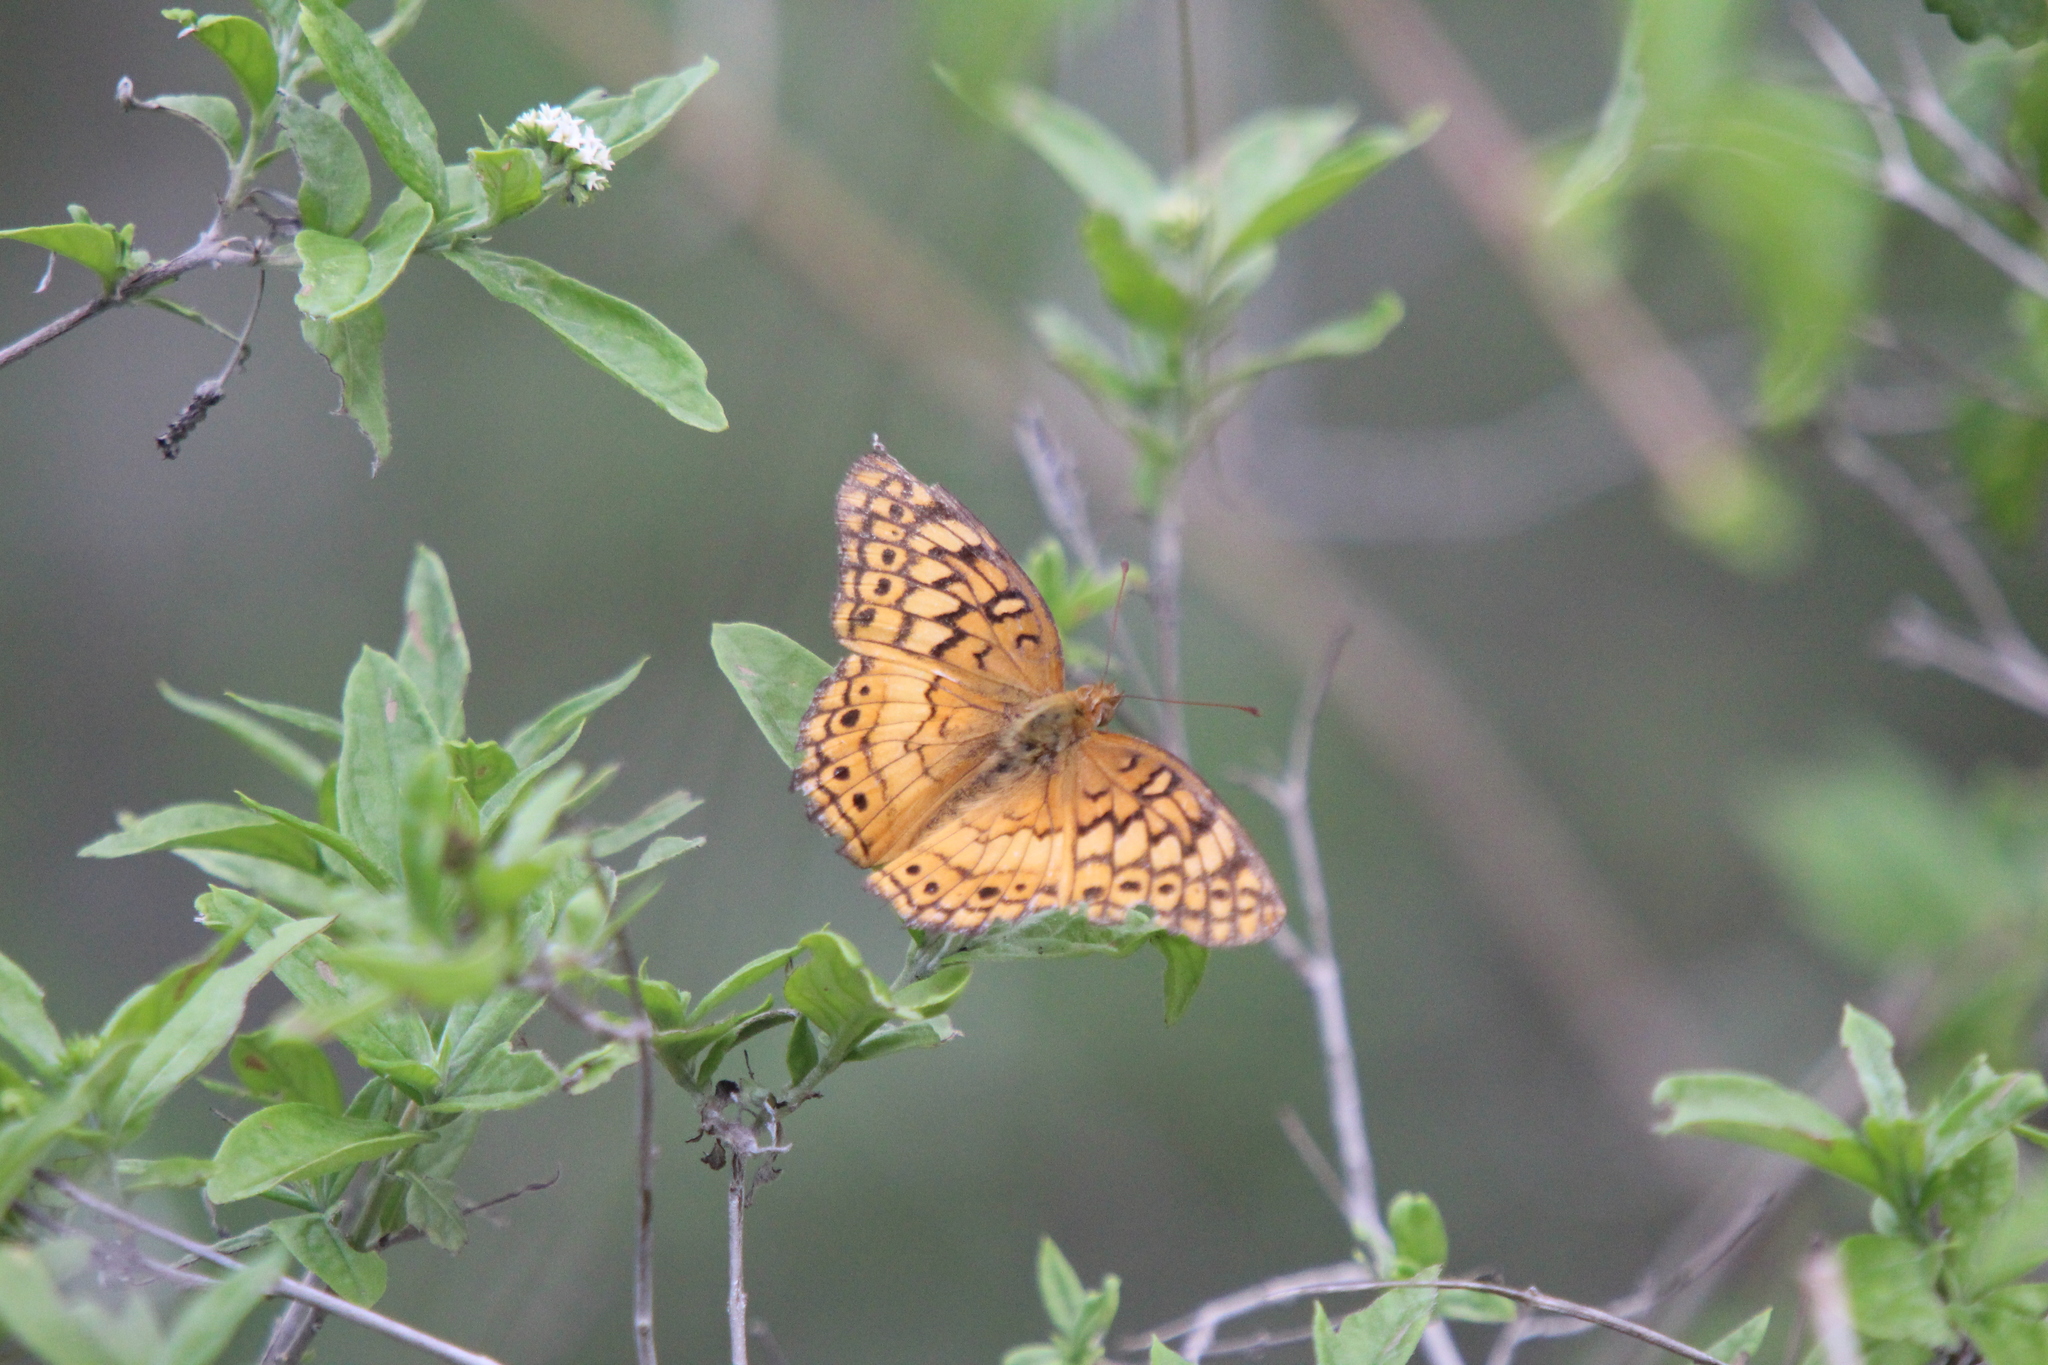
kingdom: Animalia
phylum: Arthropoda
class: Insecta
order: Lepidoptera
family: Nymphalidae
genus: Euptoieta
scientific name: Euptoieta claudia
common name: Variegated fritillary
